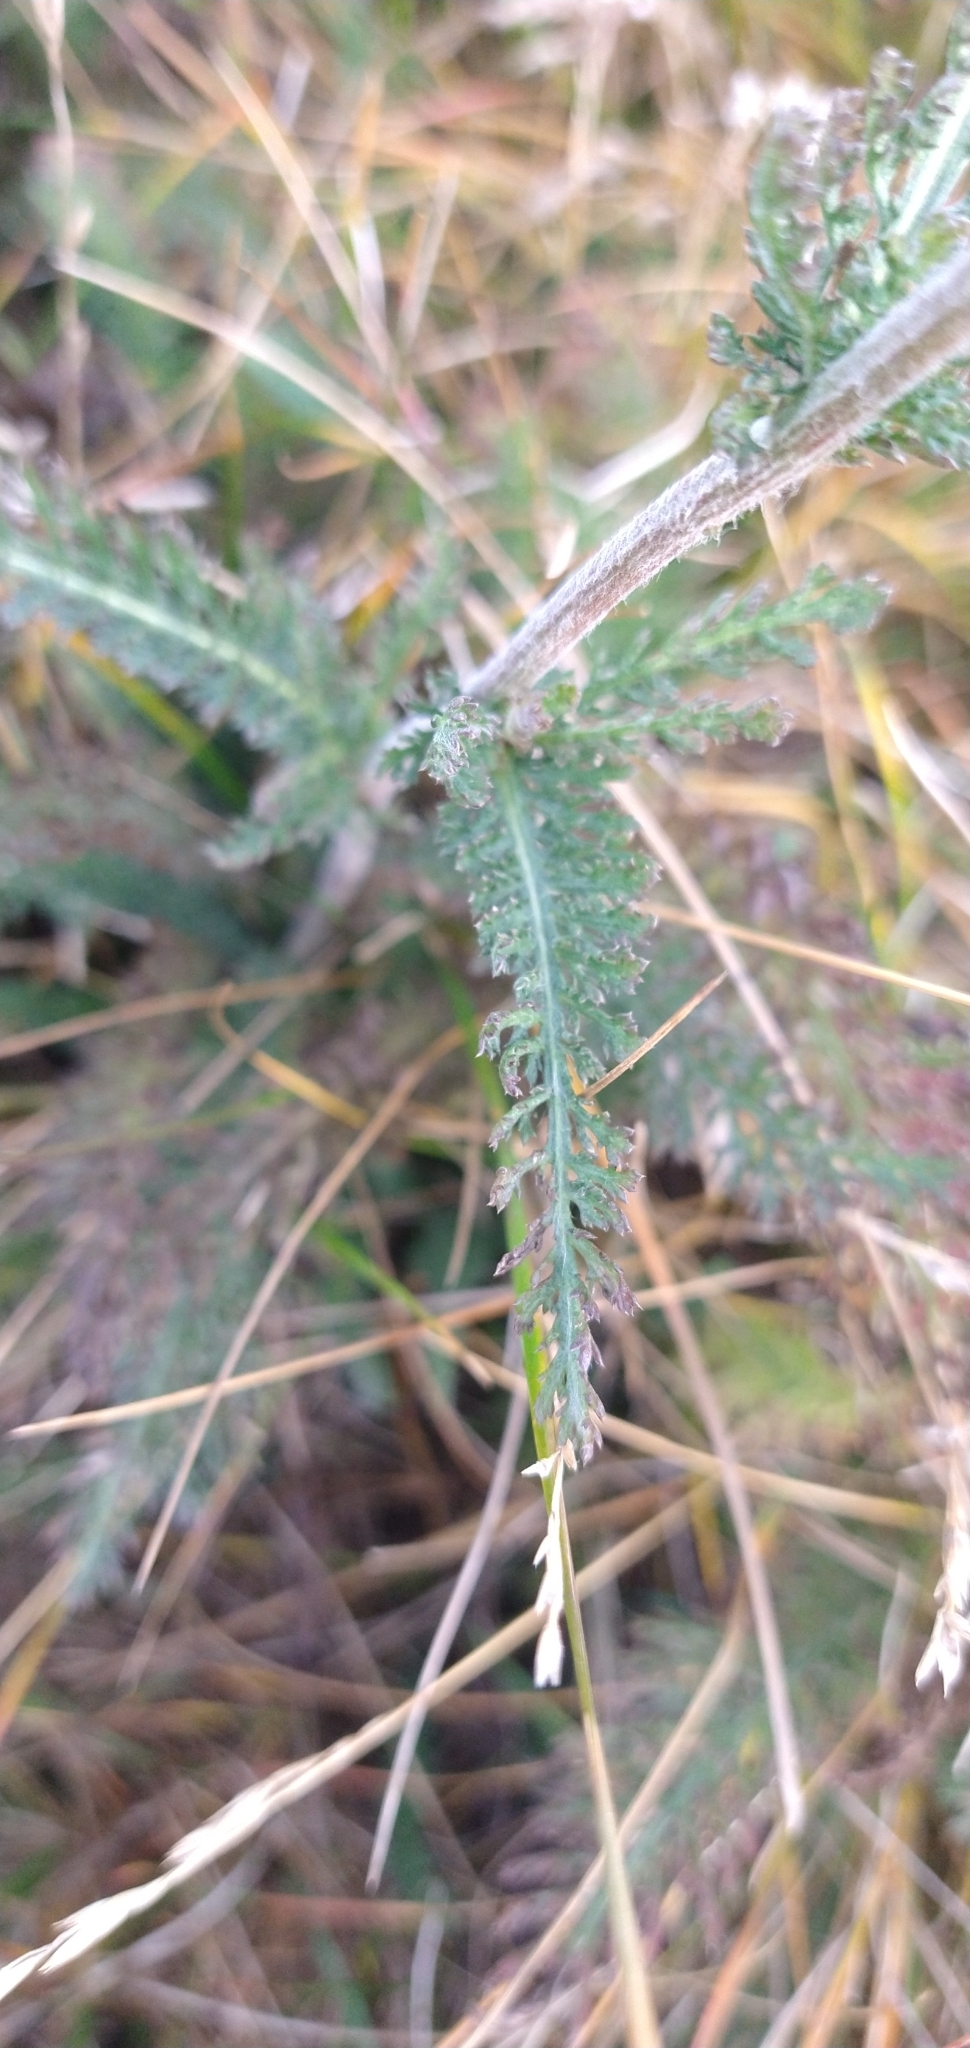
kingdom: Plantae
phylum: Tracheophyta
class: Magnoliopsida
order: Asterales
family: Asteraceae
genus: Achillea
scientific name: Achillea millefolium
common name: Yarrow
